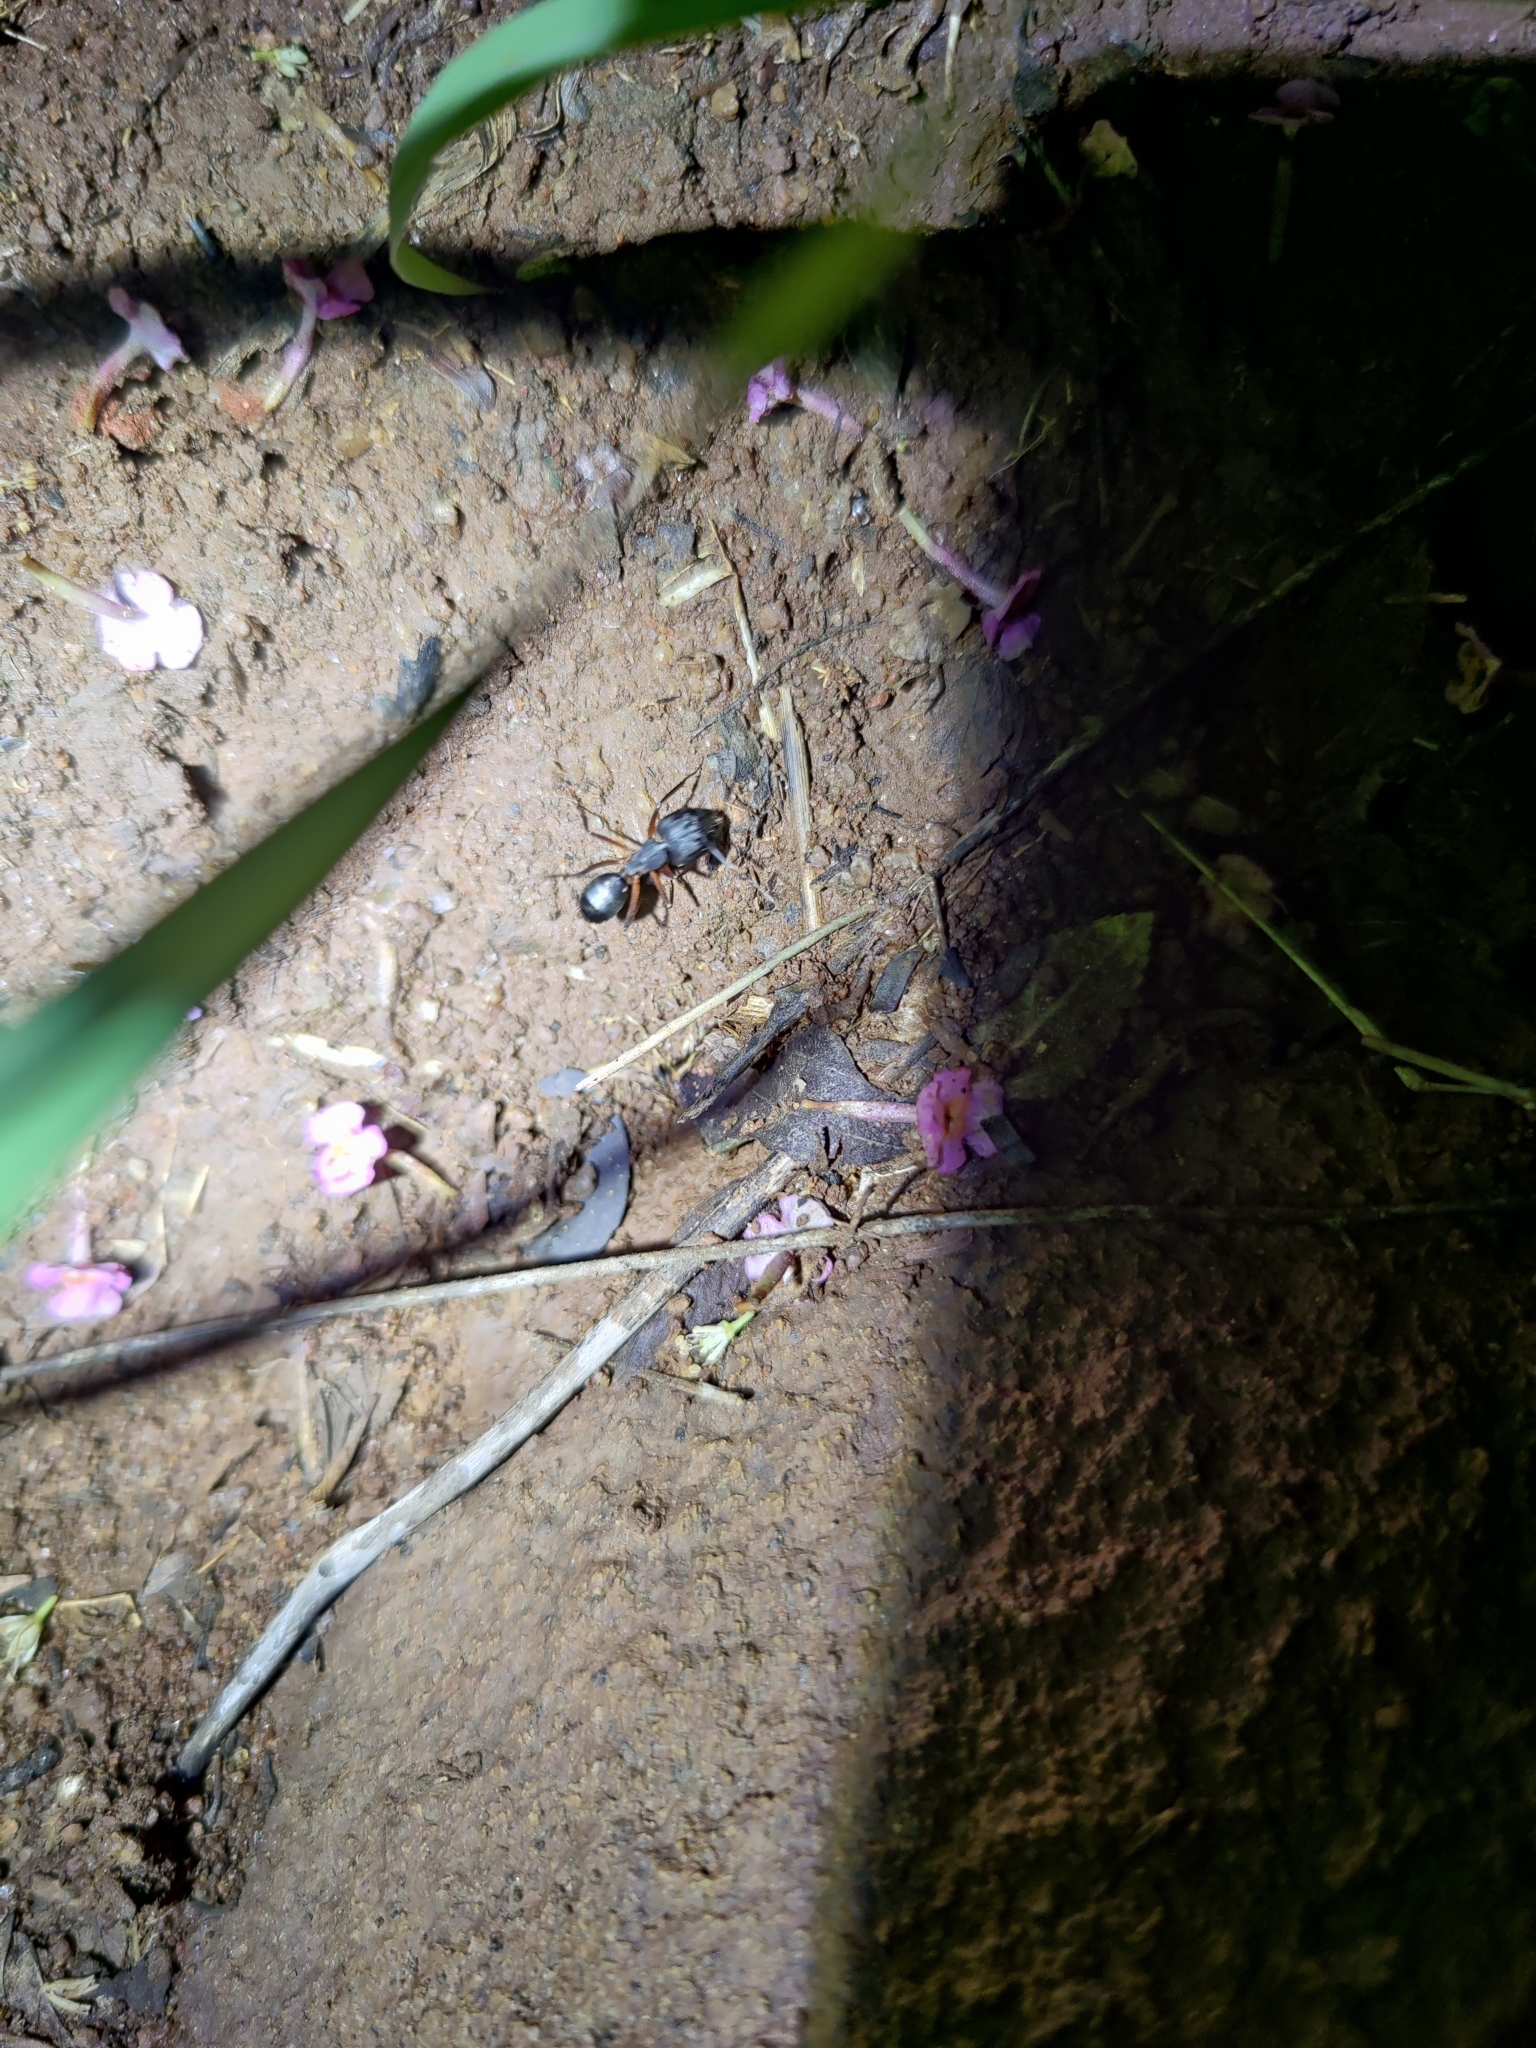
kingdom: Animalia
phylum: Arthropoda
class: Insecta
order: Hymenoptera
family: Formicidae
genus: Camponotus
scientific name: Camponotus compressus
